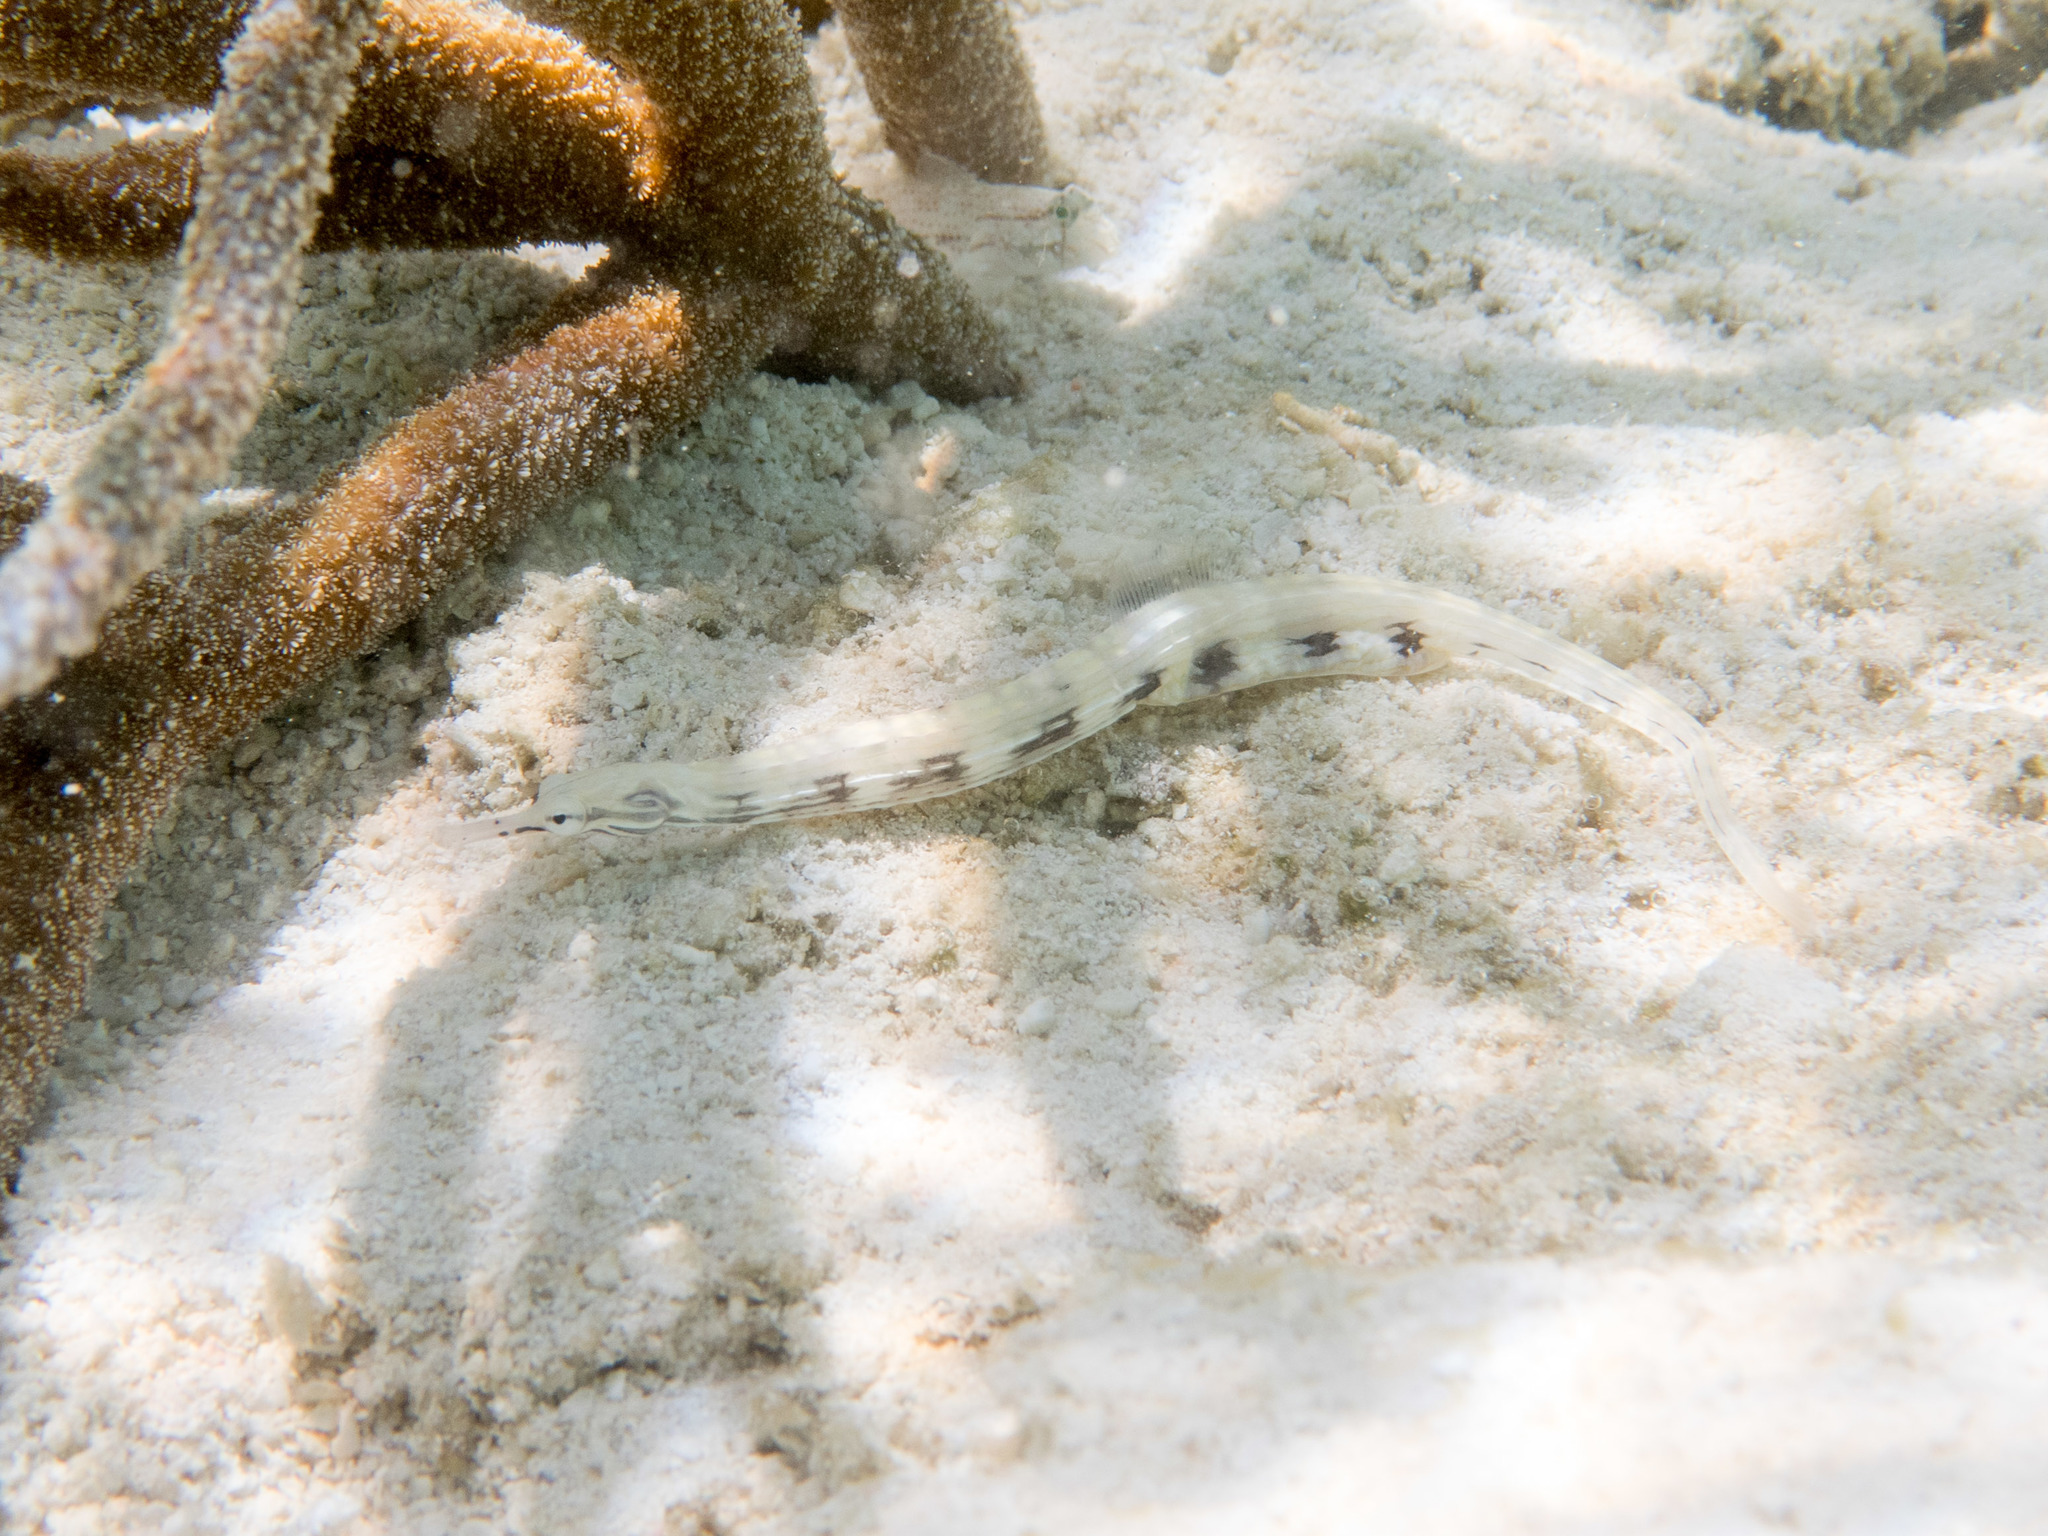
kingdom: Animalia
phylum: Chordata
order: Syngnathiformes
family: Syngnathidae
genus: Corythoichthys
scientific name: Corythoichthys haematopterus
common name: Bloodspot pipefish
